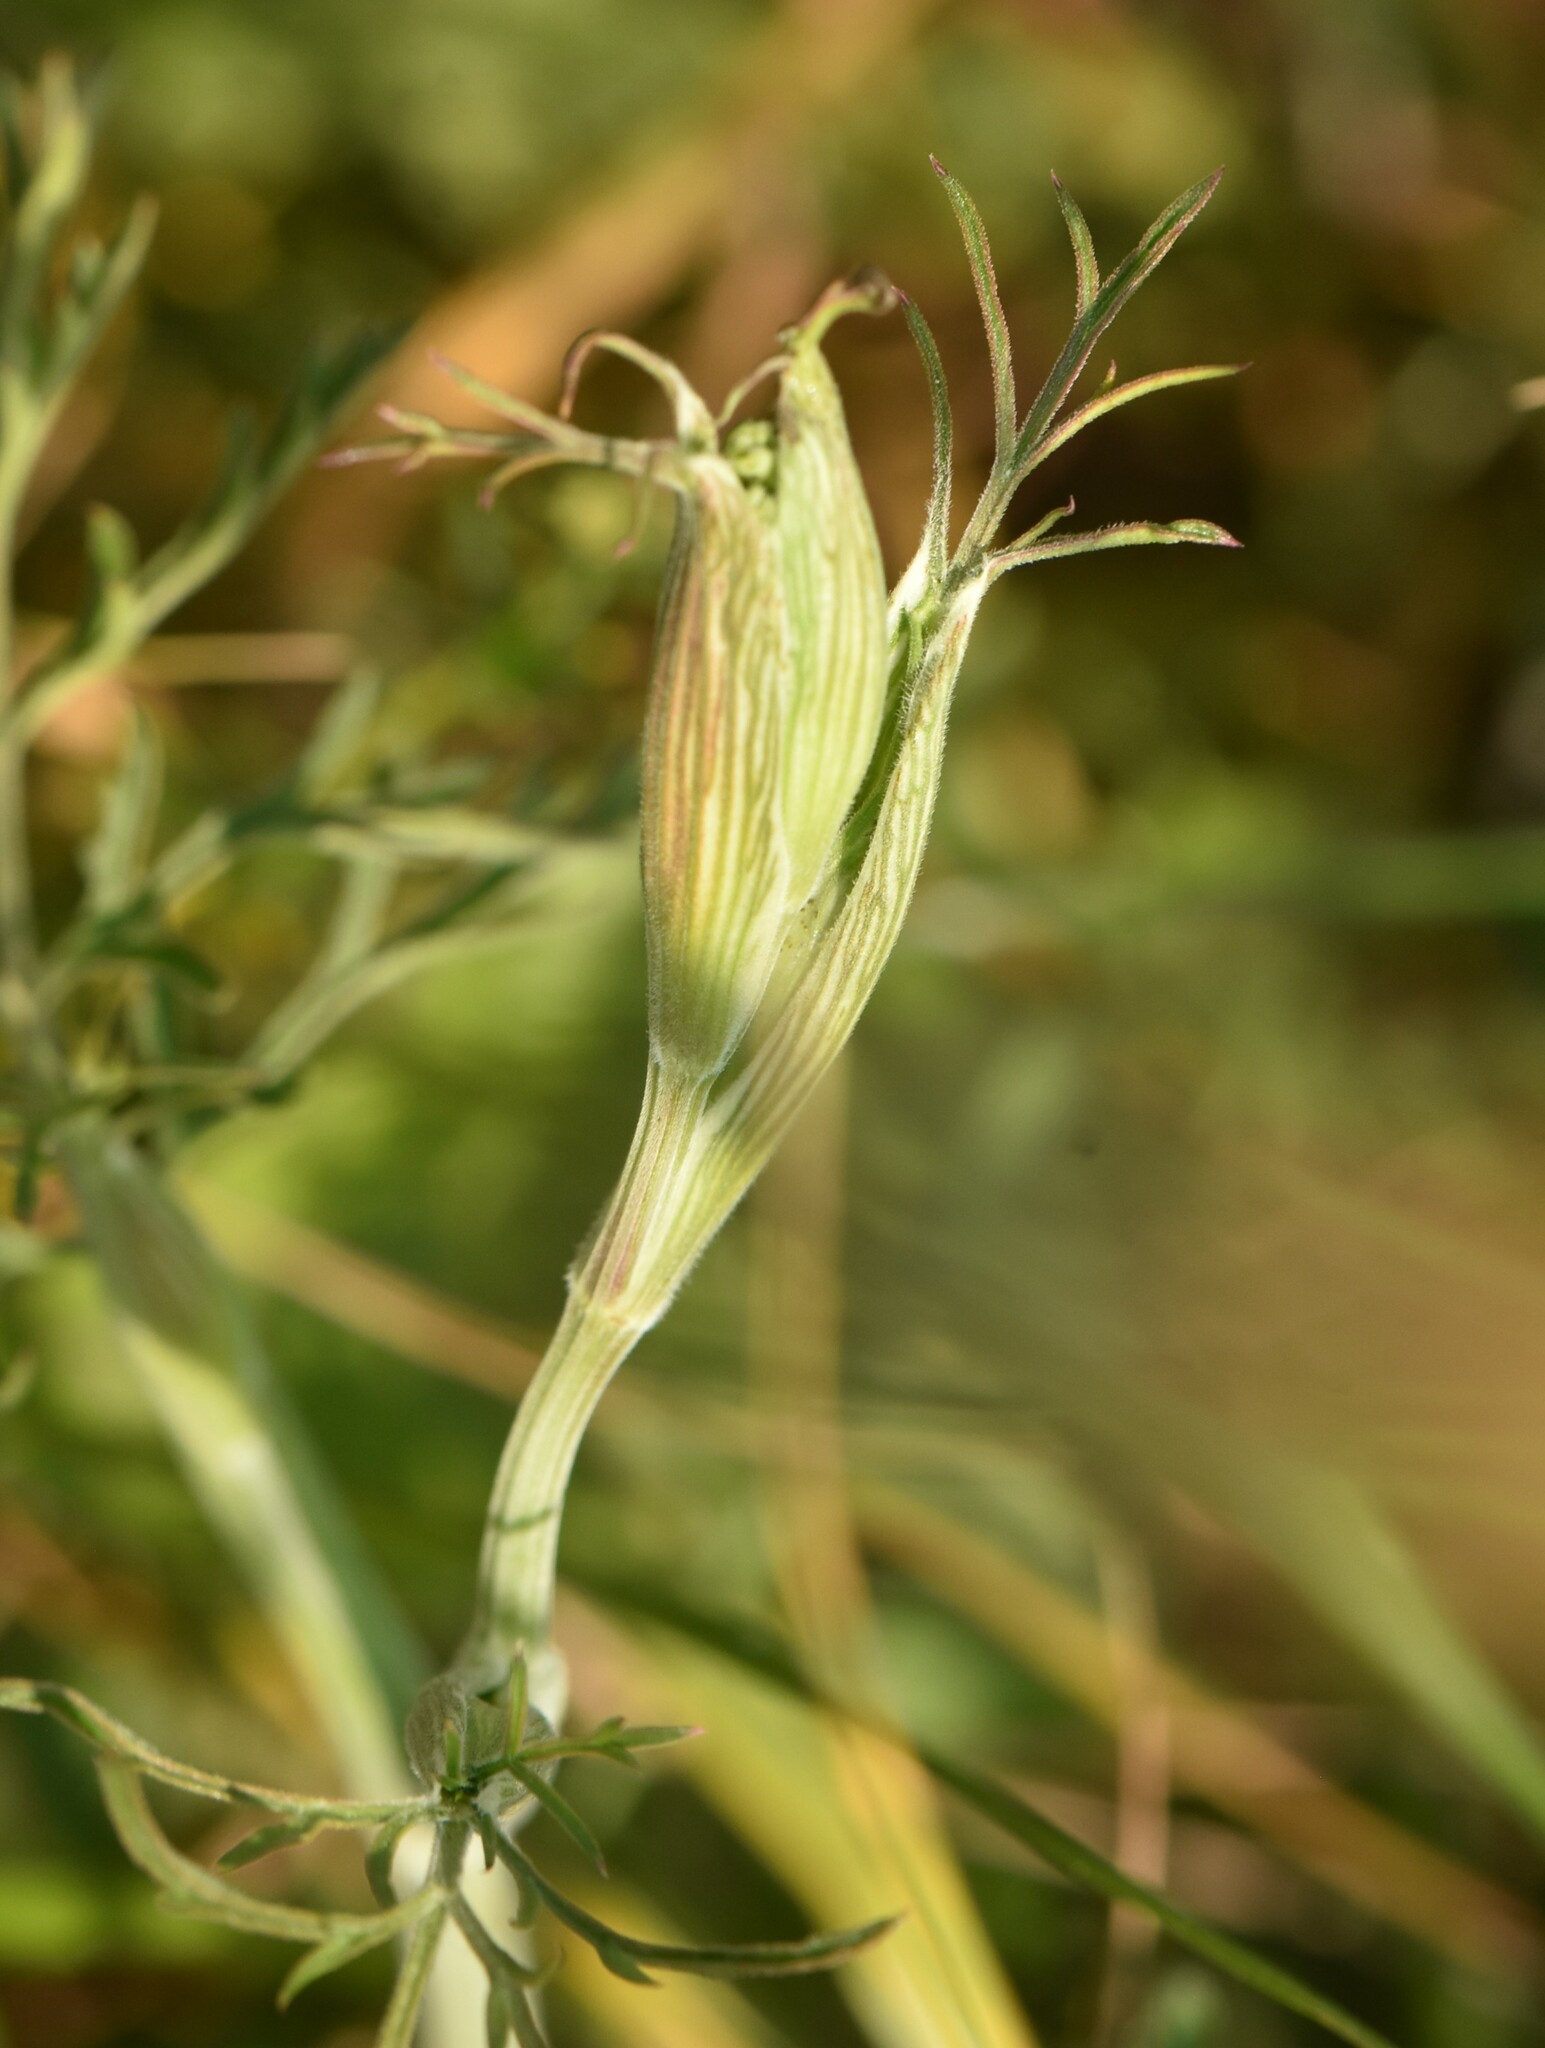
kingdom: Plantae
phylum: Tracheophyta
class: Magnoliopsida
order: Apiales
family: Apiaceae
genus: Pimpinella
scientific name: Pimpinella saxifraga
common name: Burnet-saxifrage
